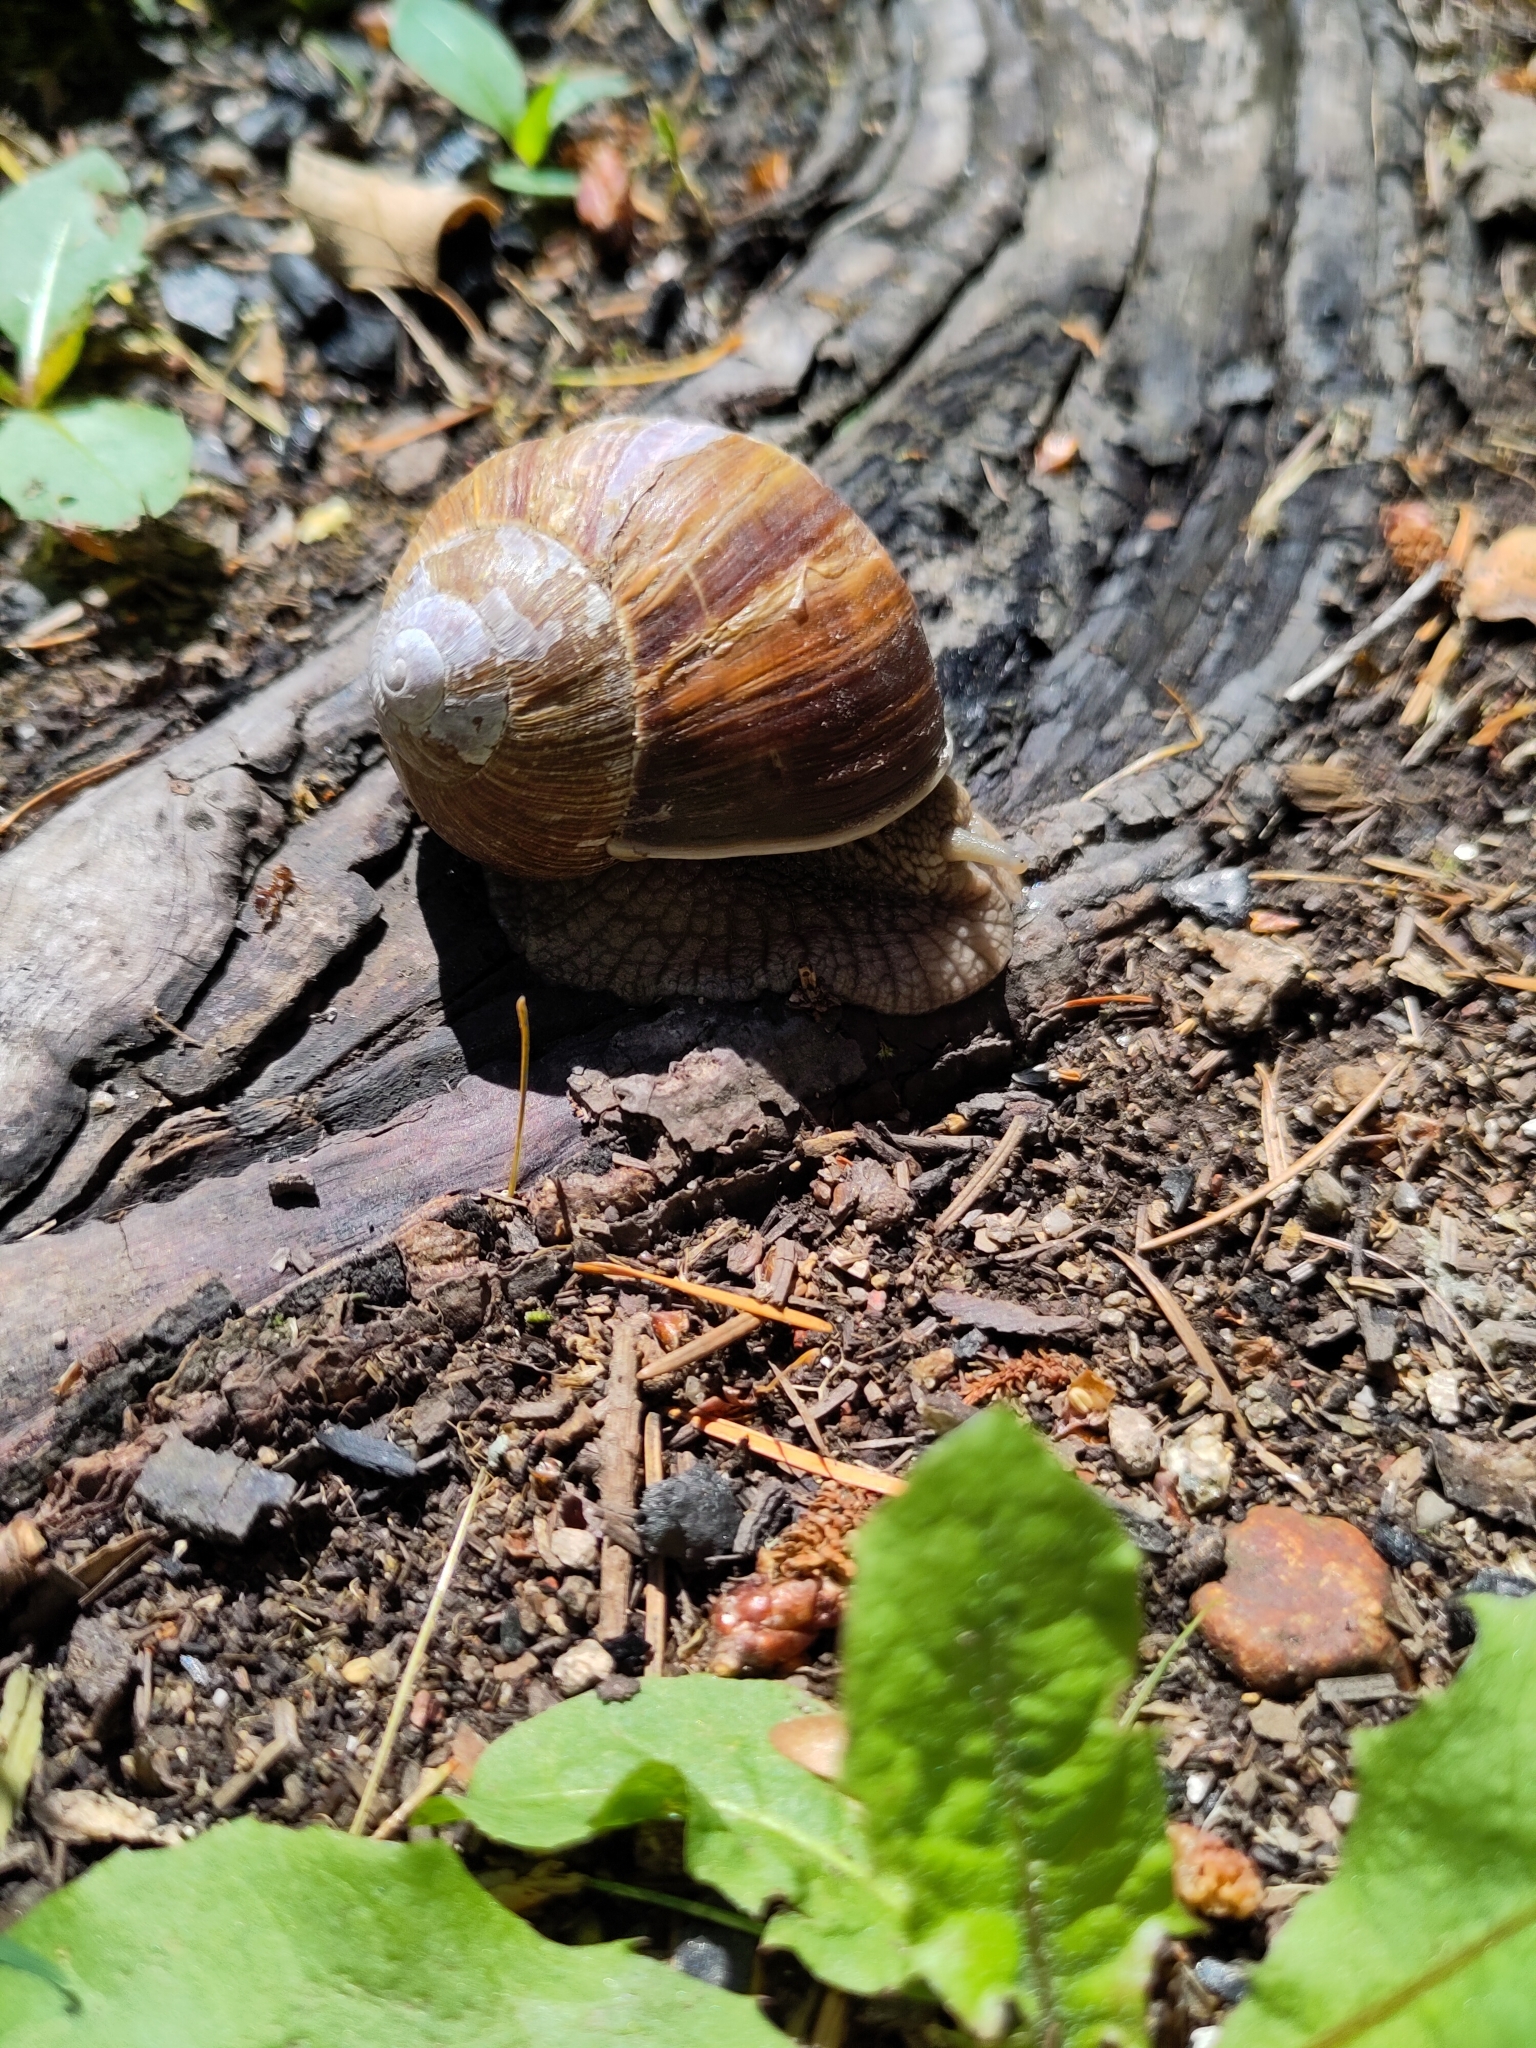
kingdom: Animalia
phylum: Mollusca
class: Gastropoda
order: Stylommatophora
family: Helicidae
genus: Helix
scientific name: Helix pomatia
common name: Roman snail
